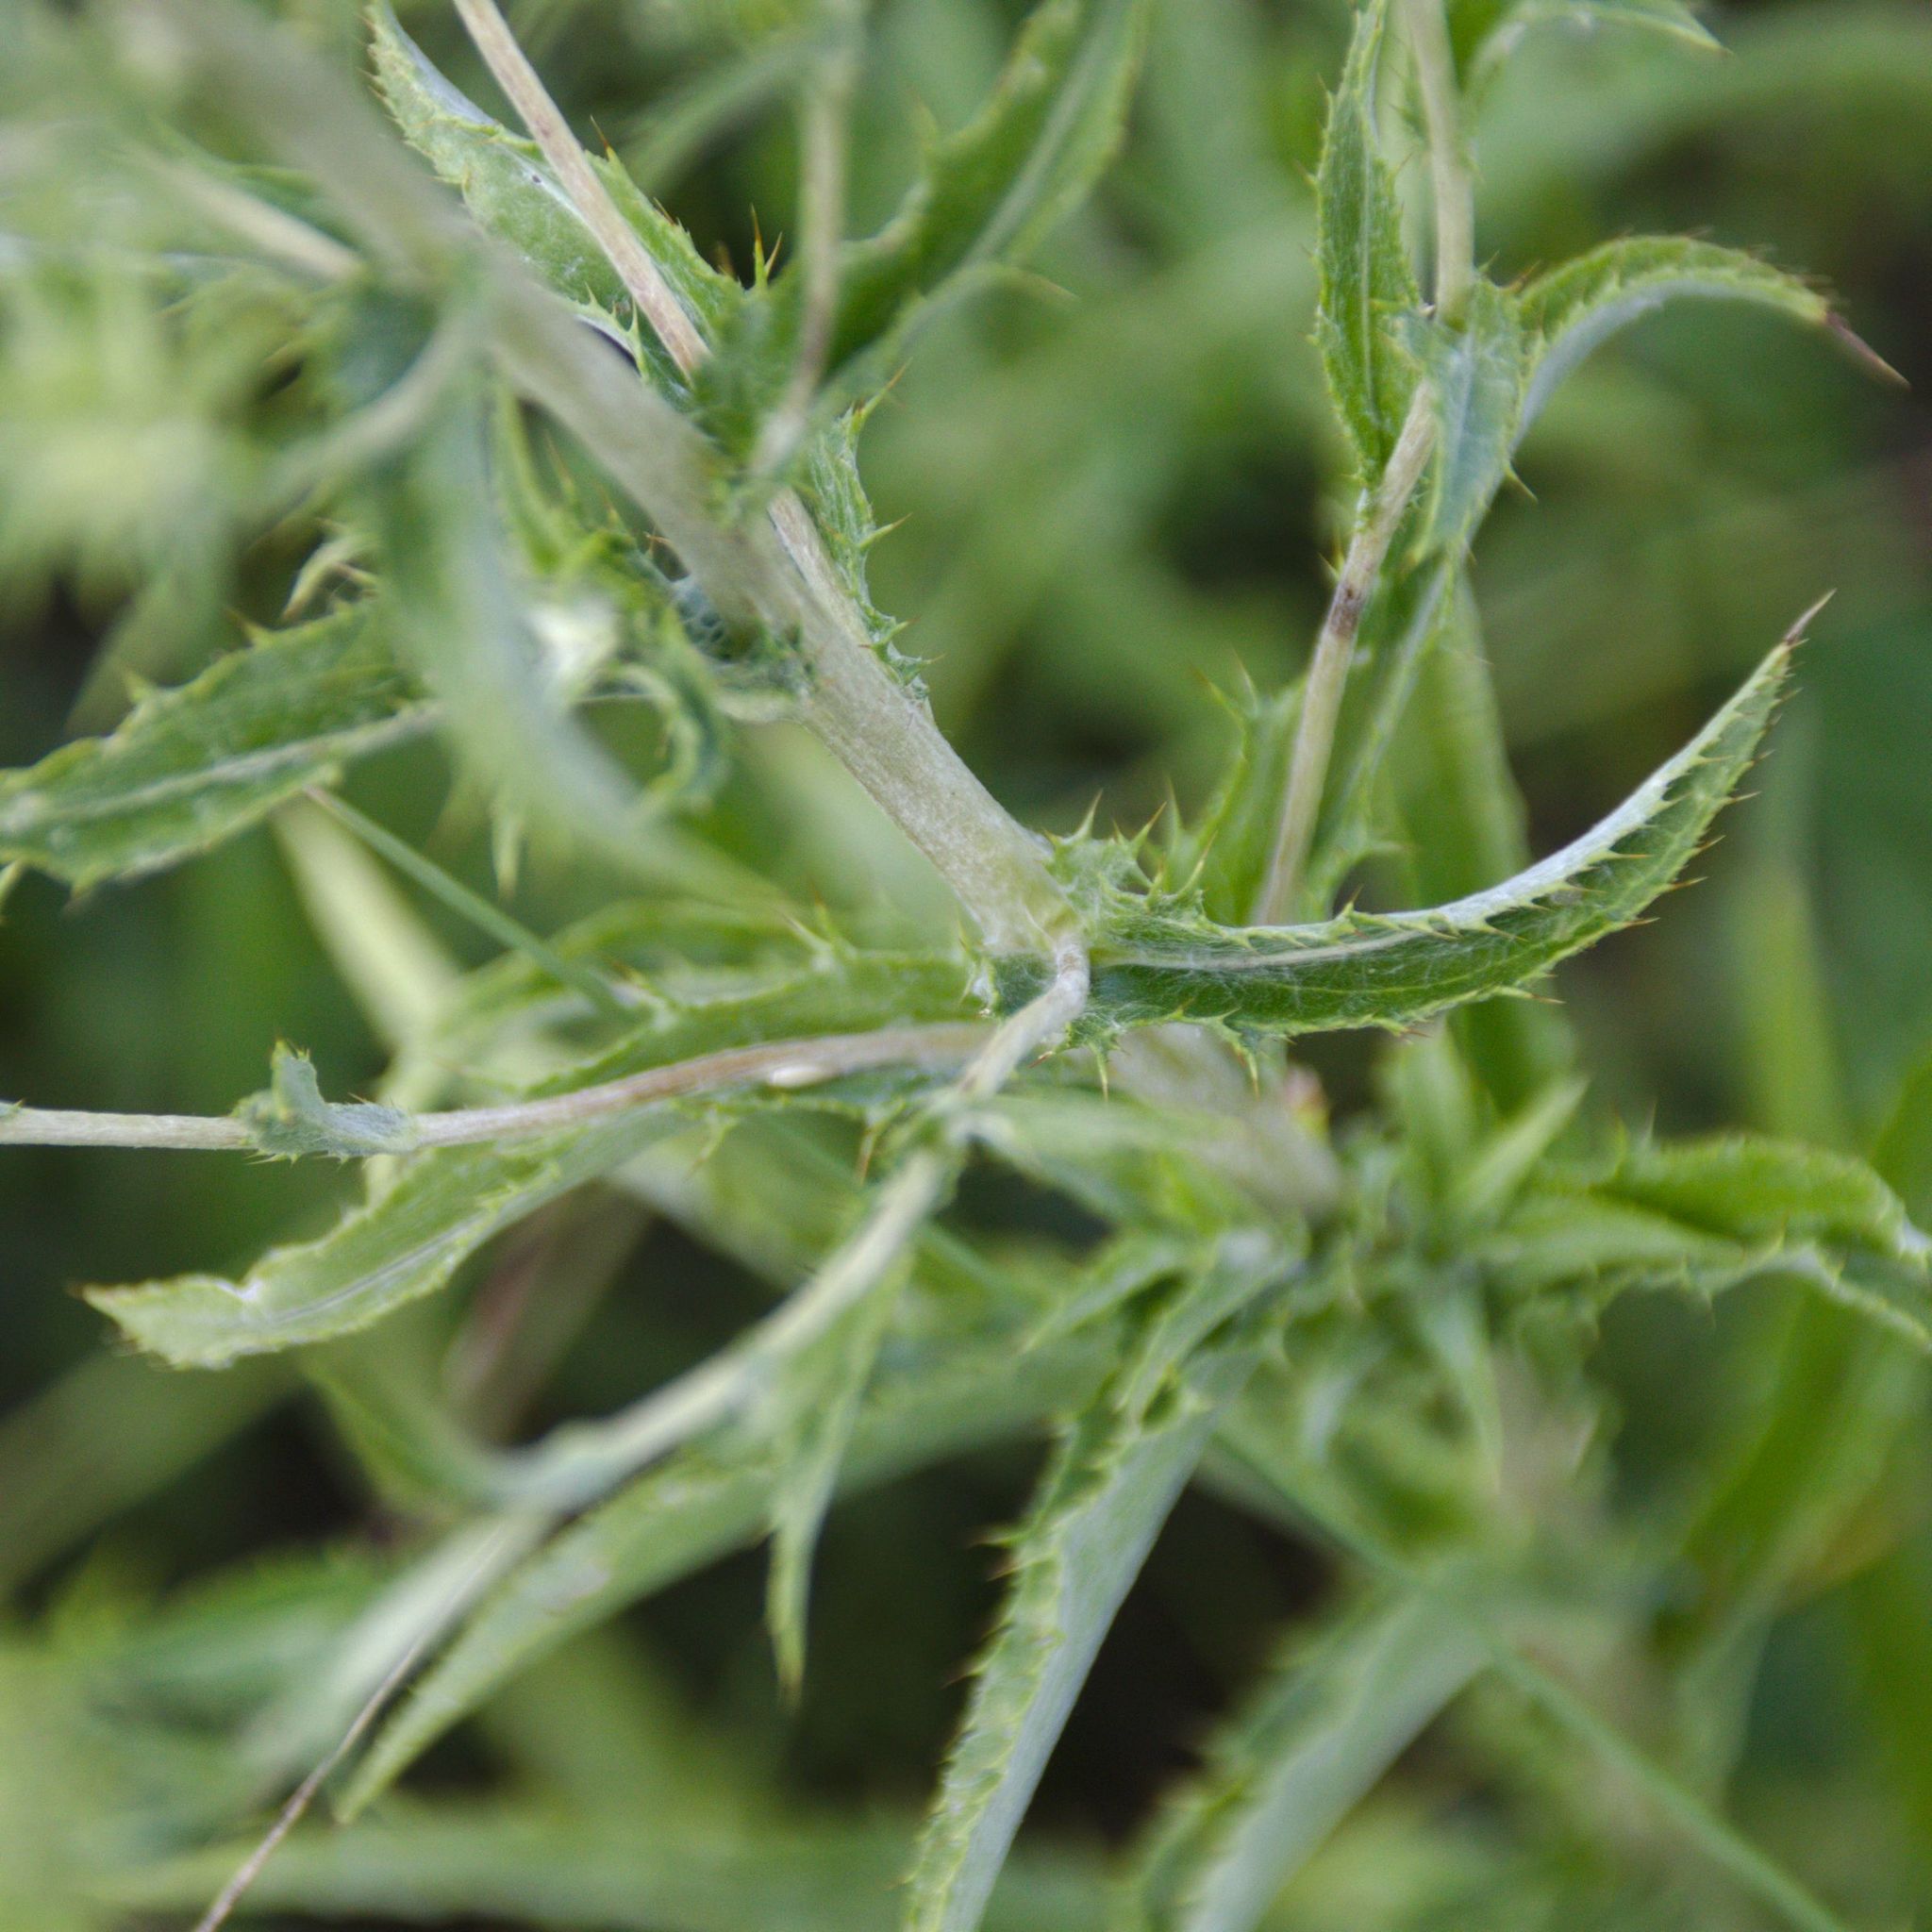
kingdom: Plantae
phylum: Tracheophyta
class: Magnoliopsida
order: Asterales
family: Asteraceae
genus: Carlina
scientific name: Carlina biebersteinii
